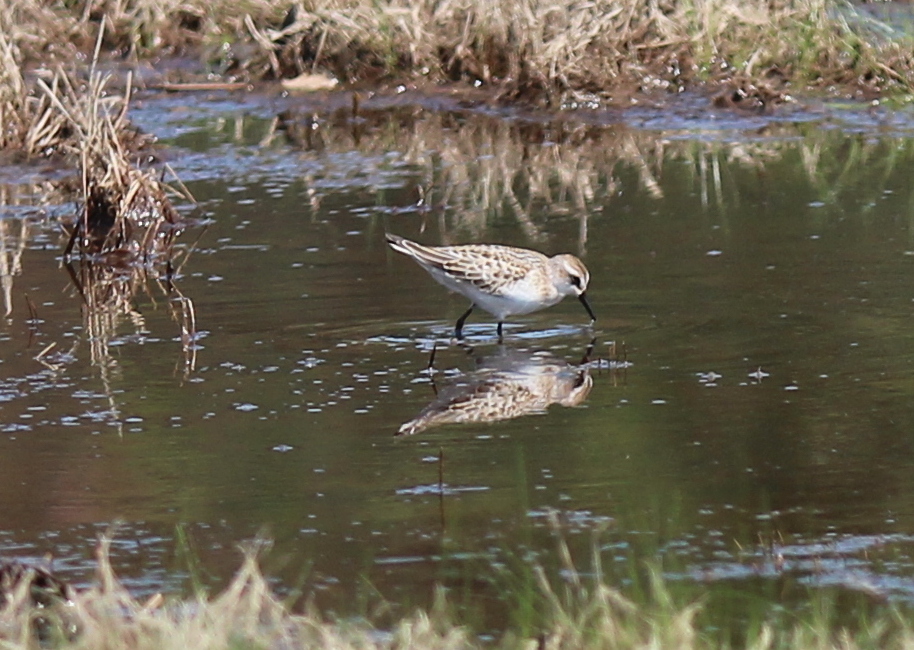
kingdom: Animalia
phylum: Chordata
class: Aves
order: Charadriiformes
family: Scolopacidae
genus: Calidris
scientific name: Calidris pusilla
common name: Semipalmated sandpiper
